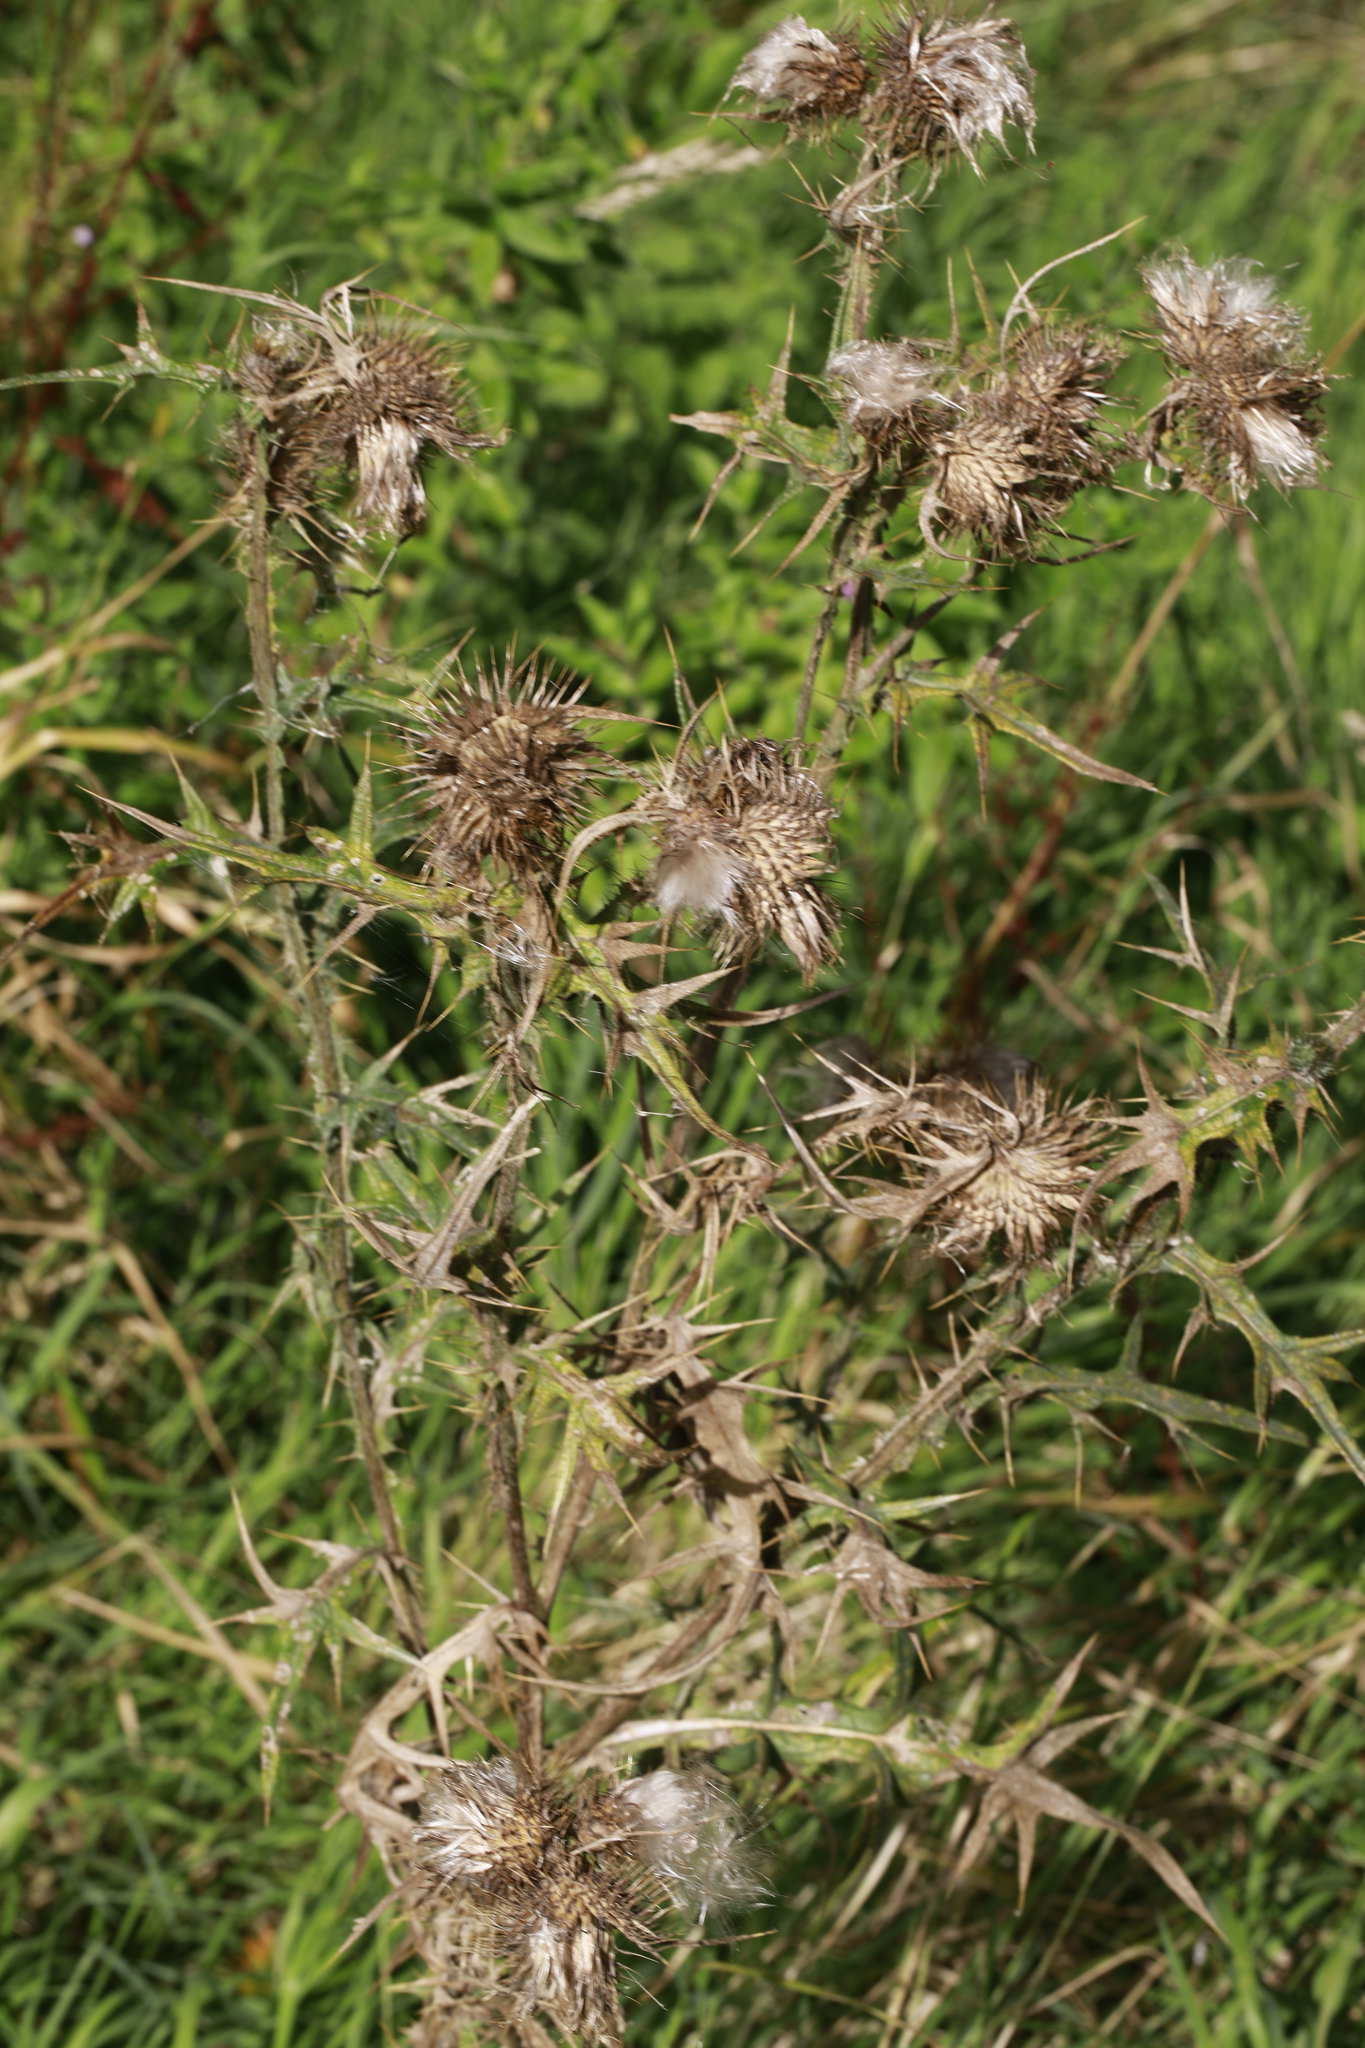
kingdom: Plantae
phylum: Tracheophyta
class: Magnoliopsida
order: Asterales
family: Asteraceae
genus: Cirsium
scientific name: Cirsium vulgare
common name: Bull thistle
